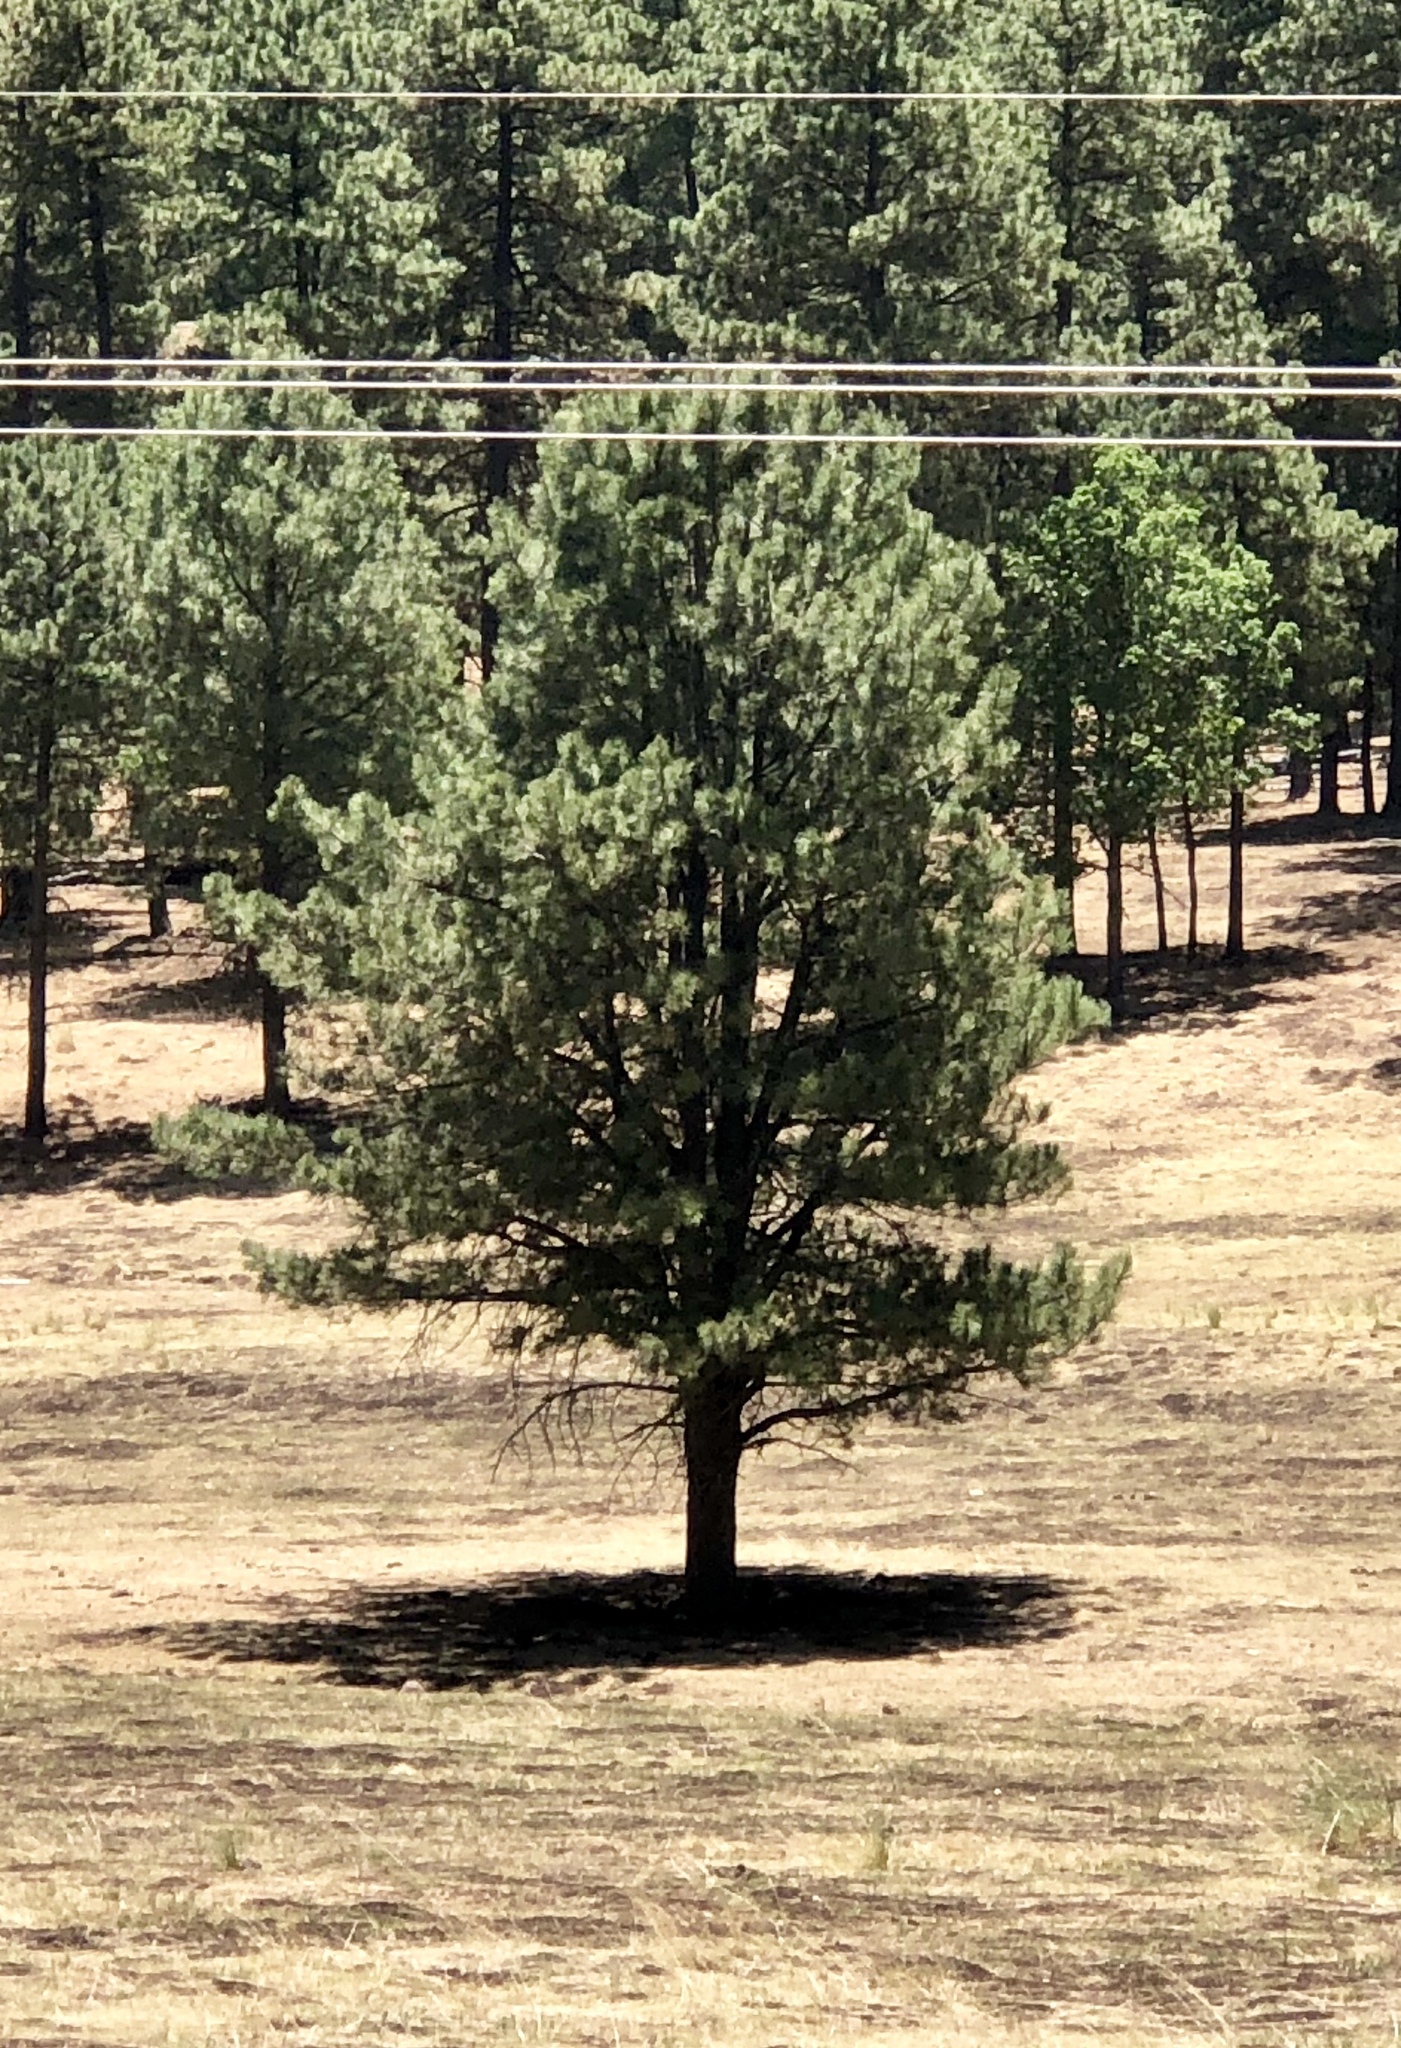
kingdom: Plantae
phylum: Tracheophyta
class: Pinopsida
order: Pinales
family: Pinaceae
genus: Pinus
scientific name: Pinus ponderosa
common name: Western yellow-pine
